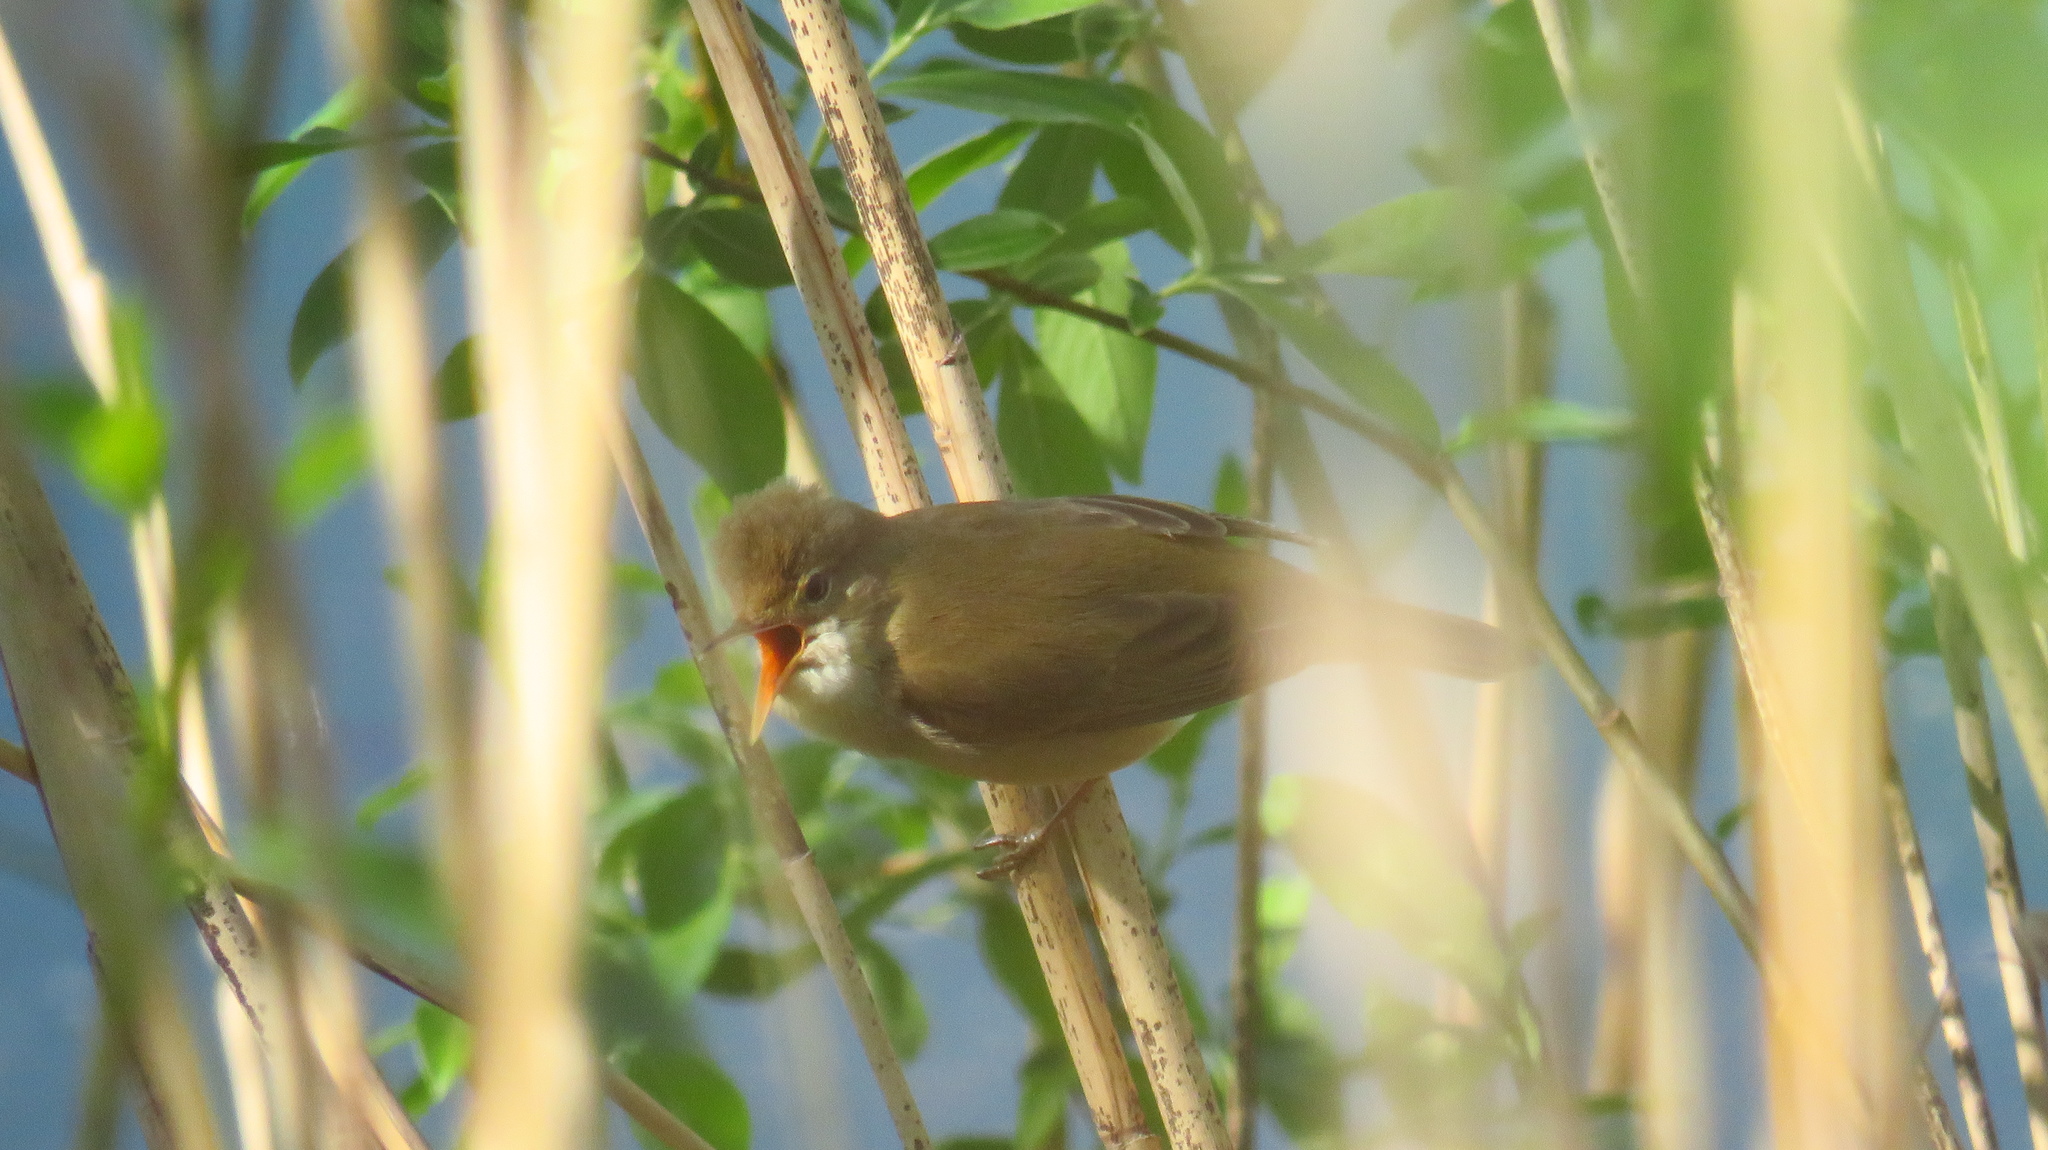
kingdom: Animalia
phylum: Chordata
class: Aves
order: Passeriformes
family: Acrocephalidae
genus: Acrocephalus
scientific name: Acrocephalus palustris
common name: Marsh warbler
